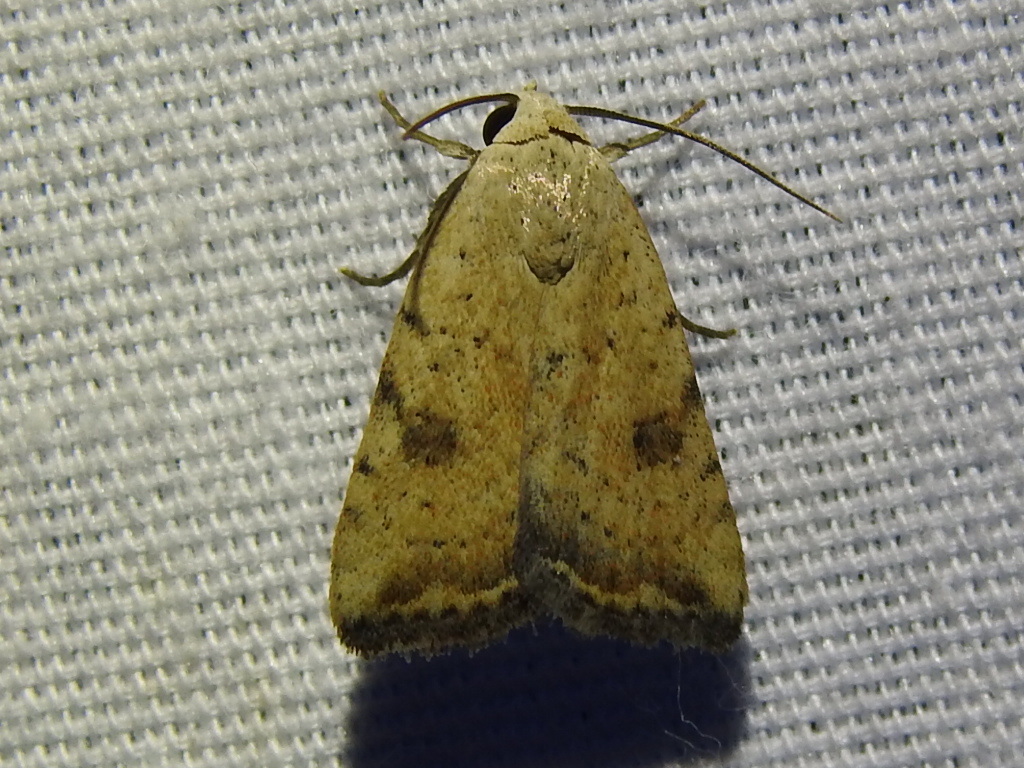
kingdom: Animalia
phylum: Arthropoda
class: Insecta
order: Lepidoptera
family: Noctuidae
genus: Micrathetis
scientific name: Micrathetis triplex
